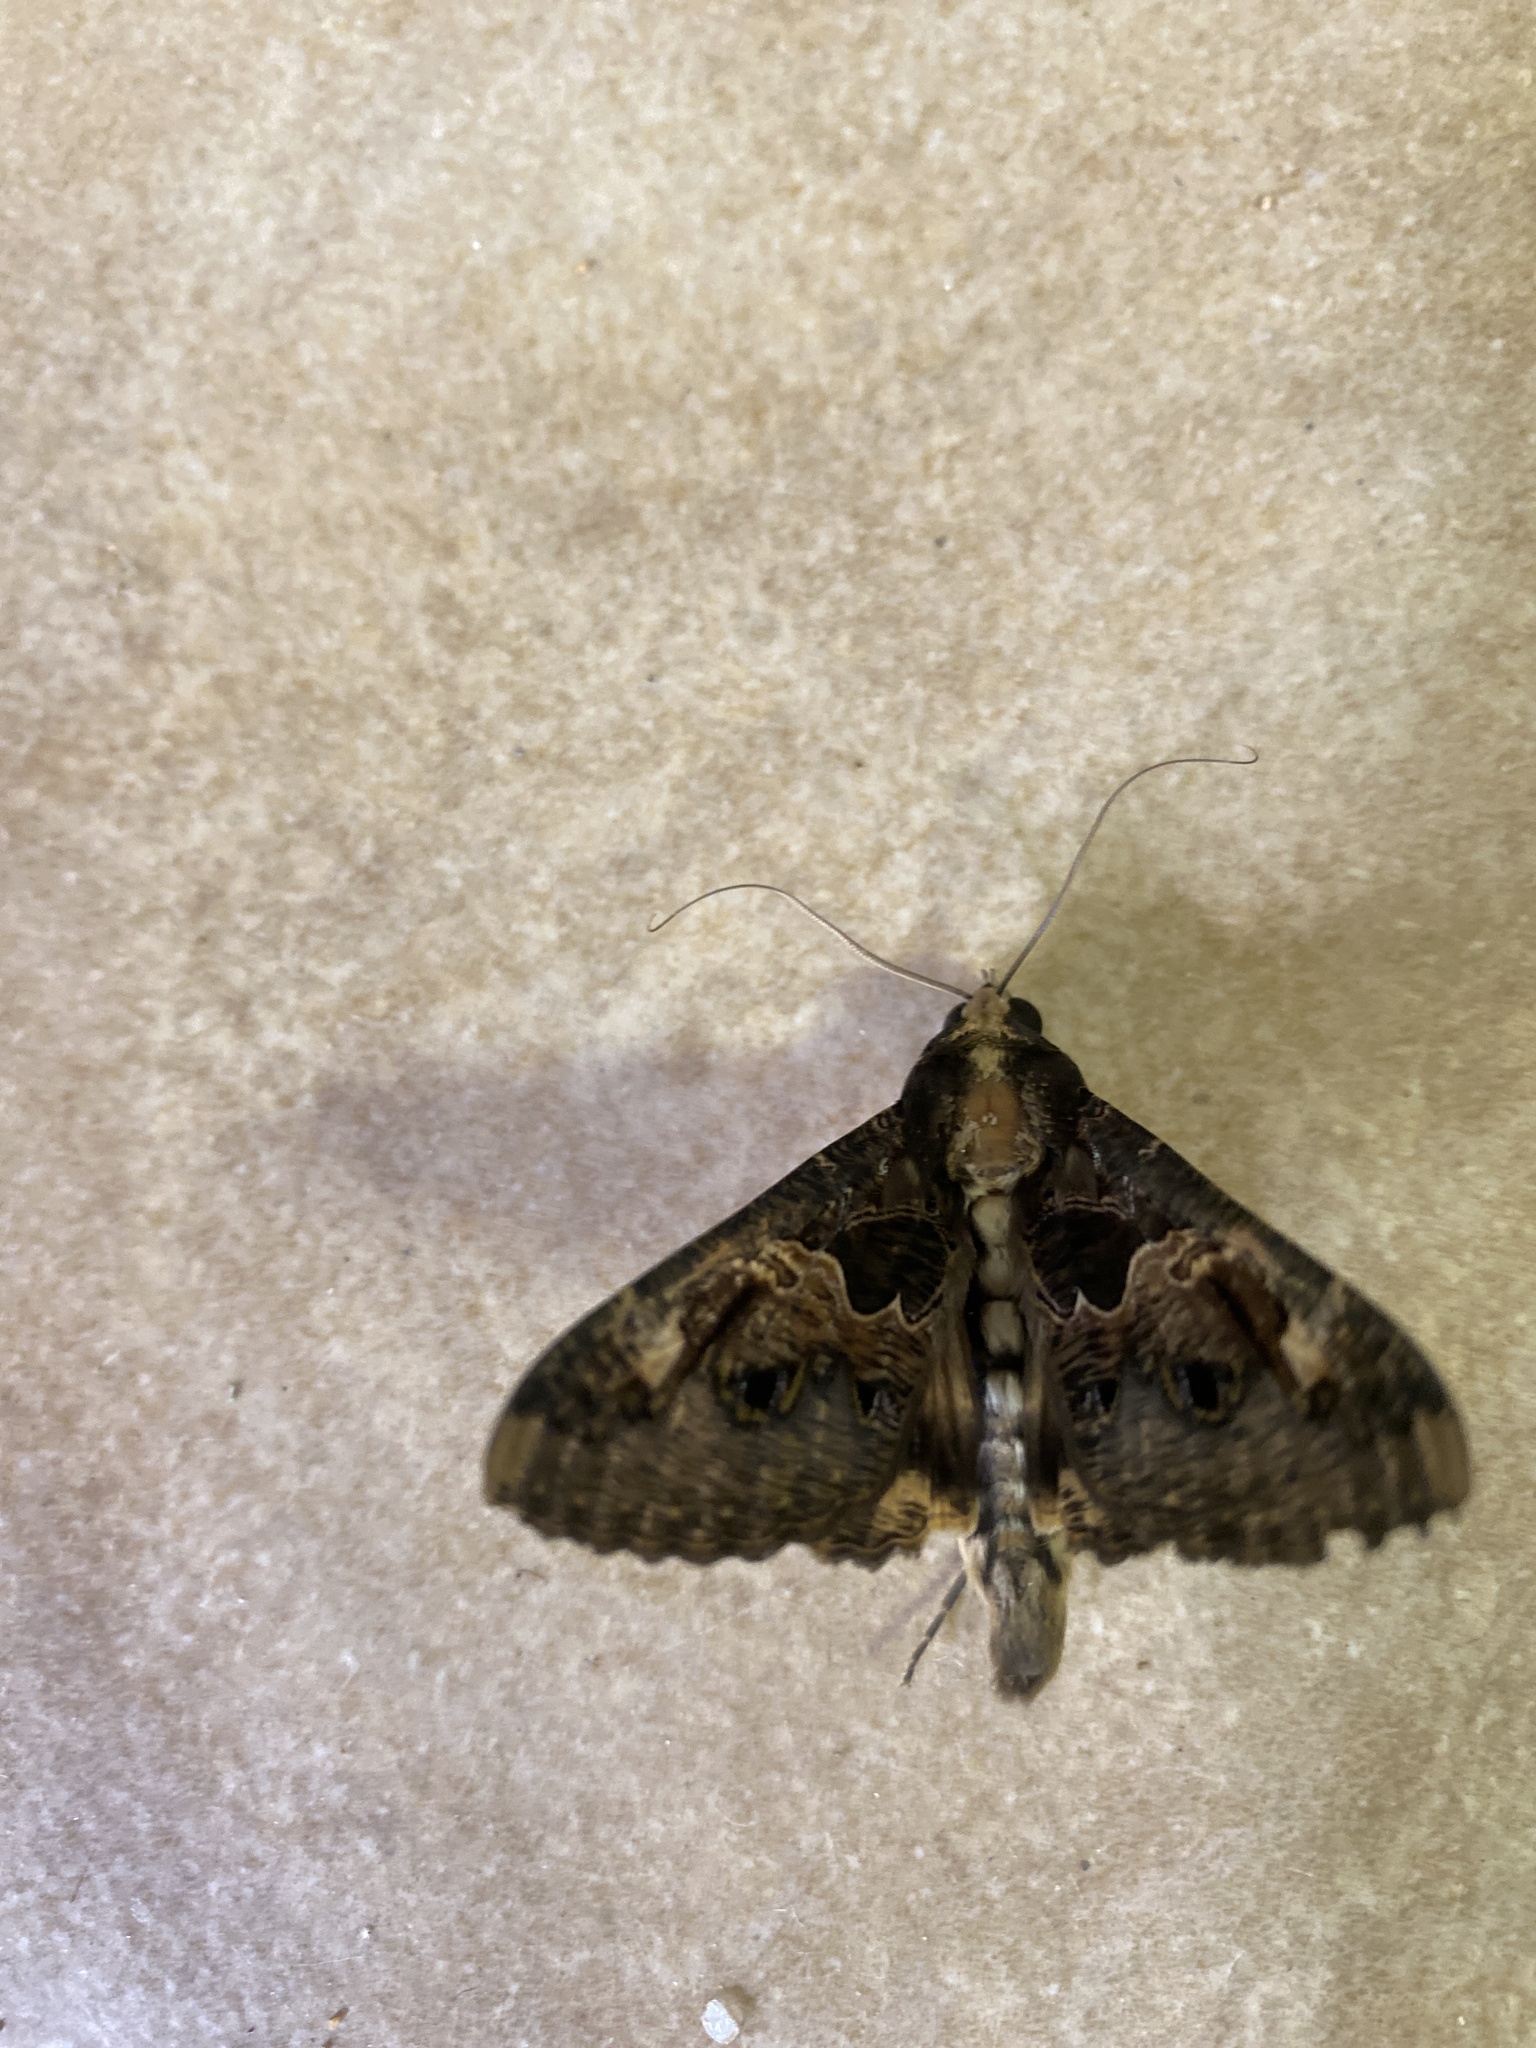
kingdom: Animalia
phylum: Arthropoda
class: Insecta
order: Lepidoptera
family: Erebidae
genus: Sphingomorpha
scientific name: Sphingomorpha chlorea
